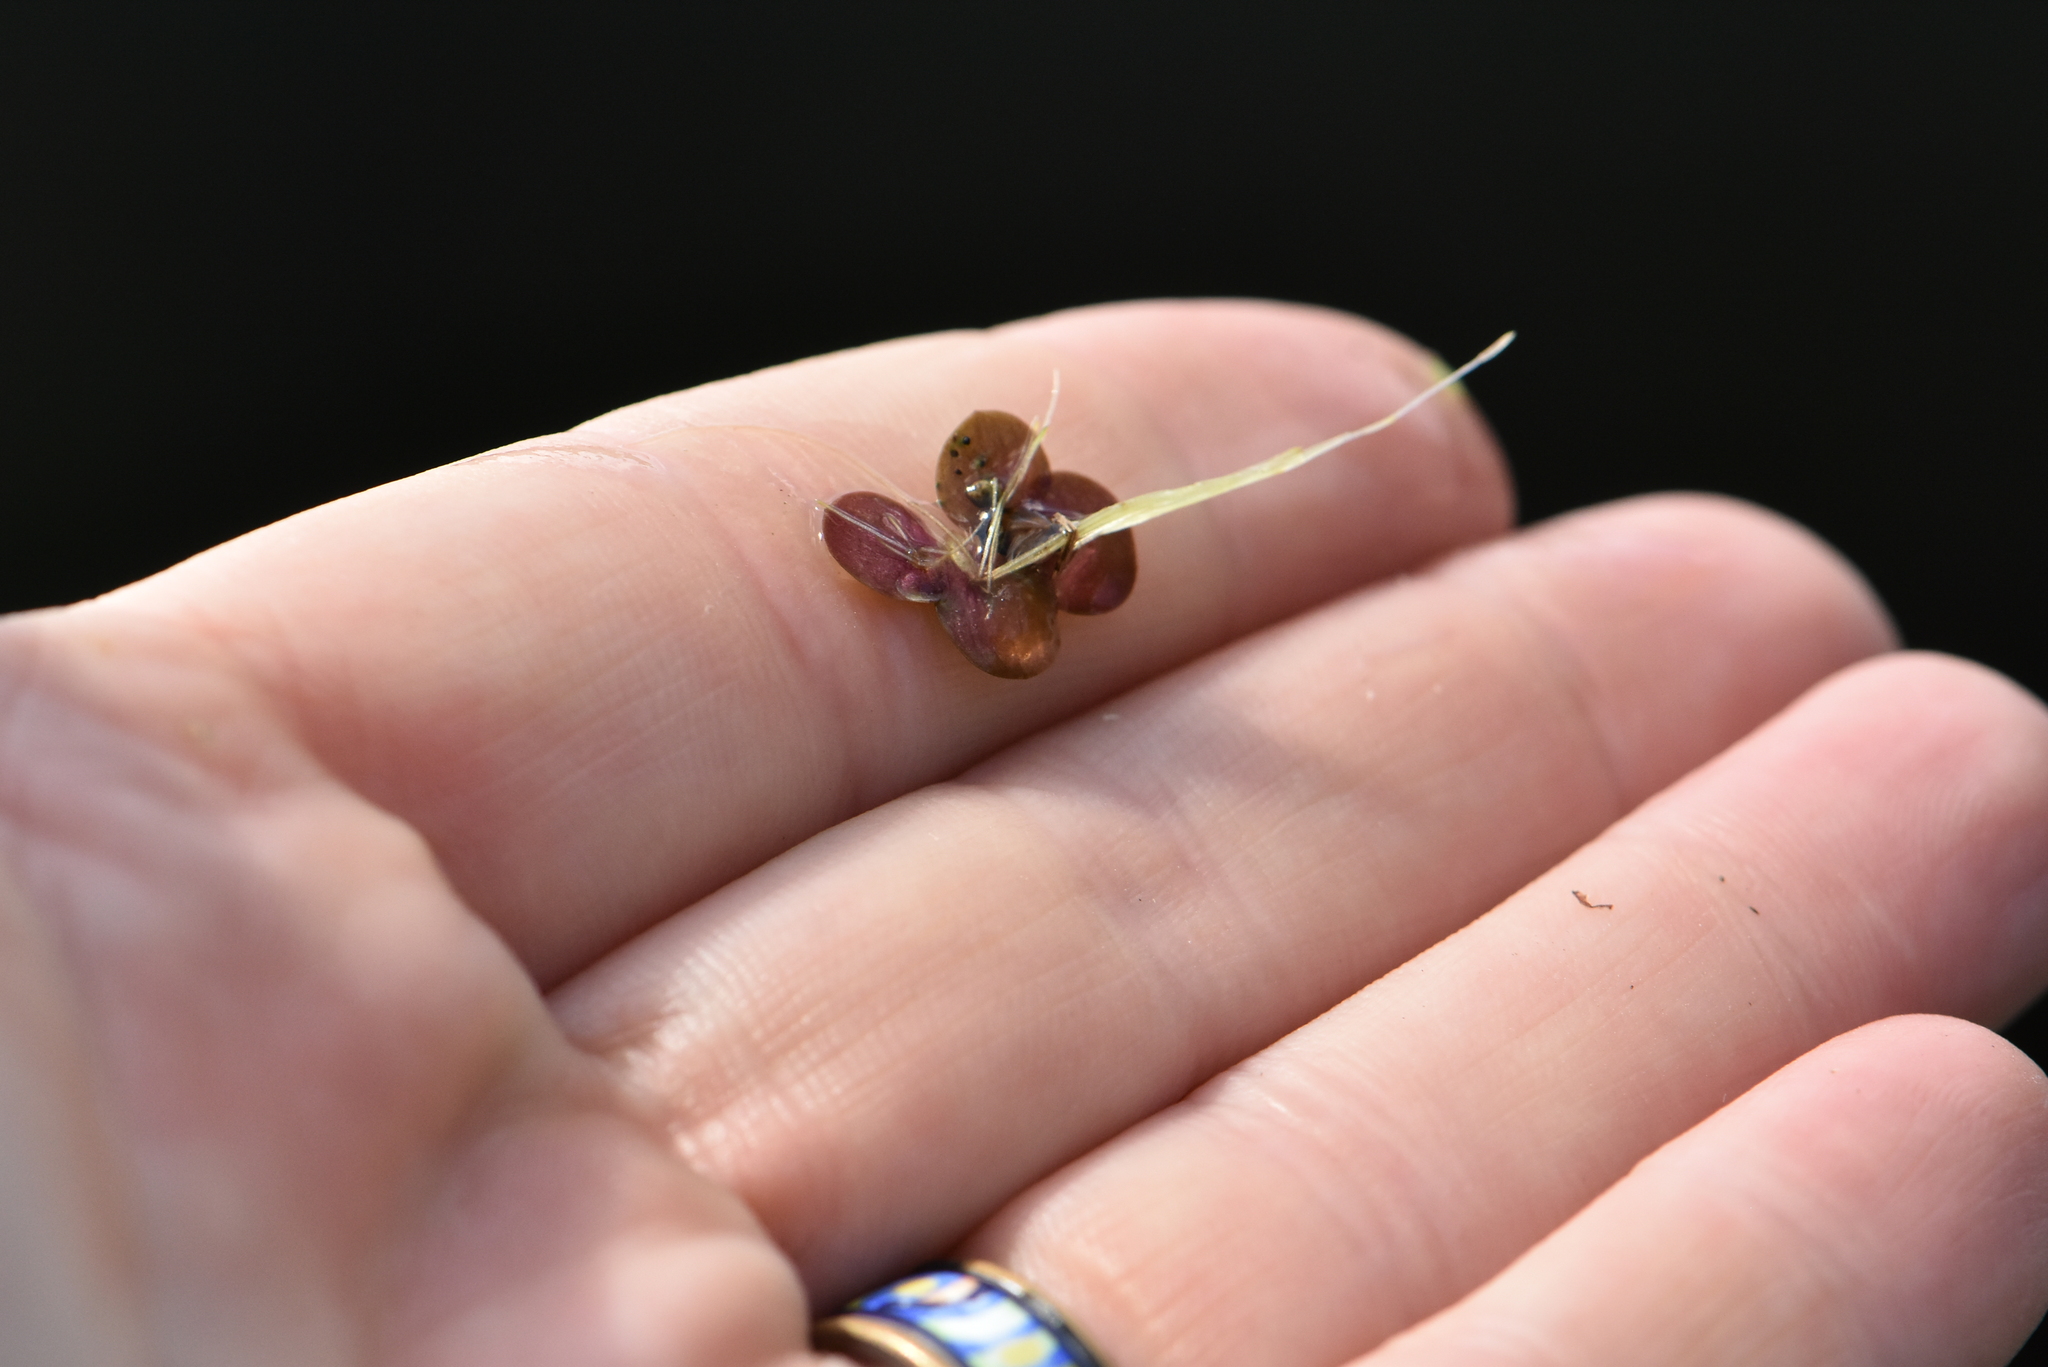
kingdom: Plantae
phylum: Tracheophyta
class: Liliopsida
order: Alismatales
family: Araceae
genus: Spirodela
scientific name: Spirodela polyrhiza
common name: Great duckweed
